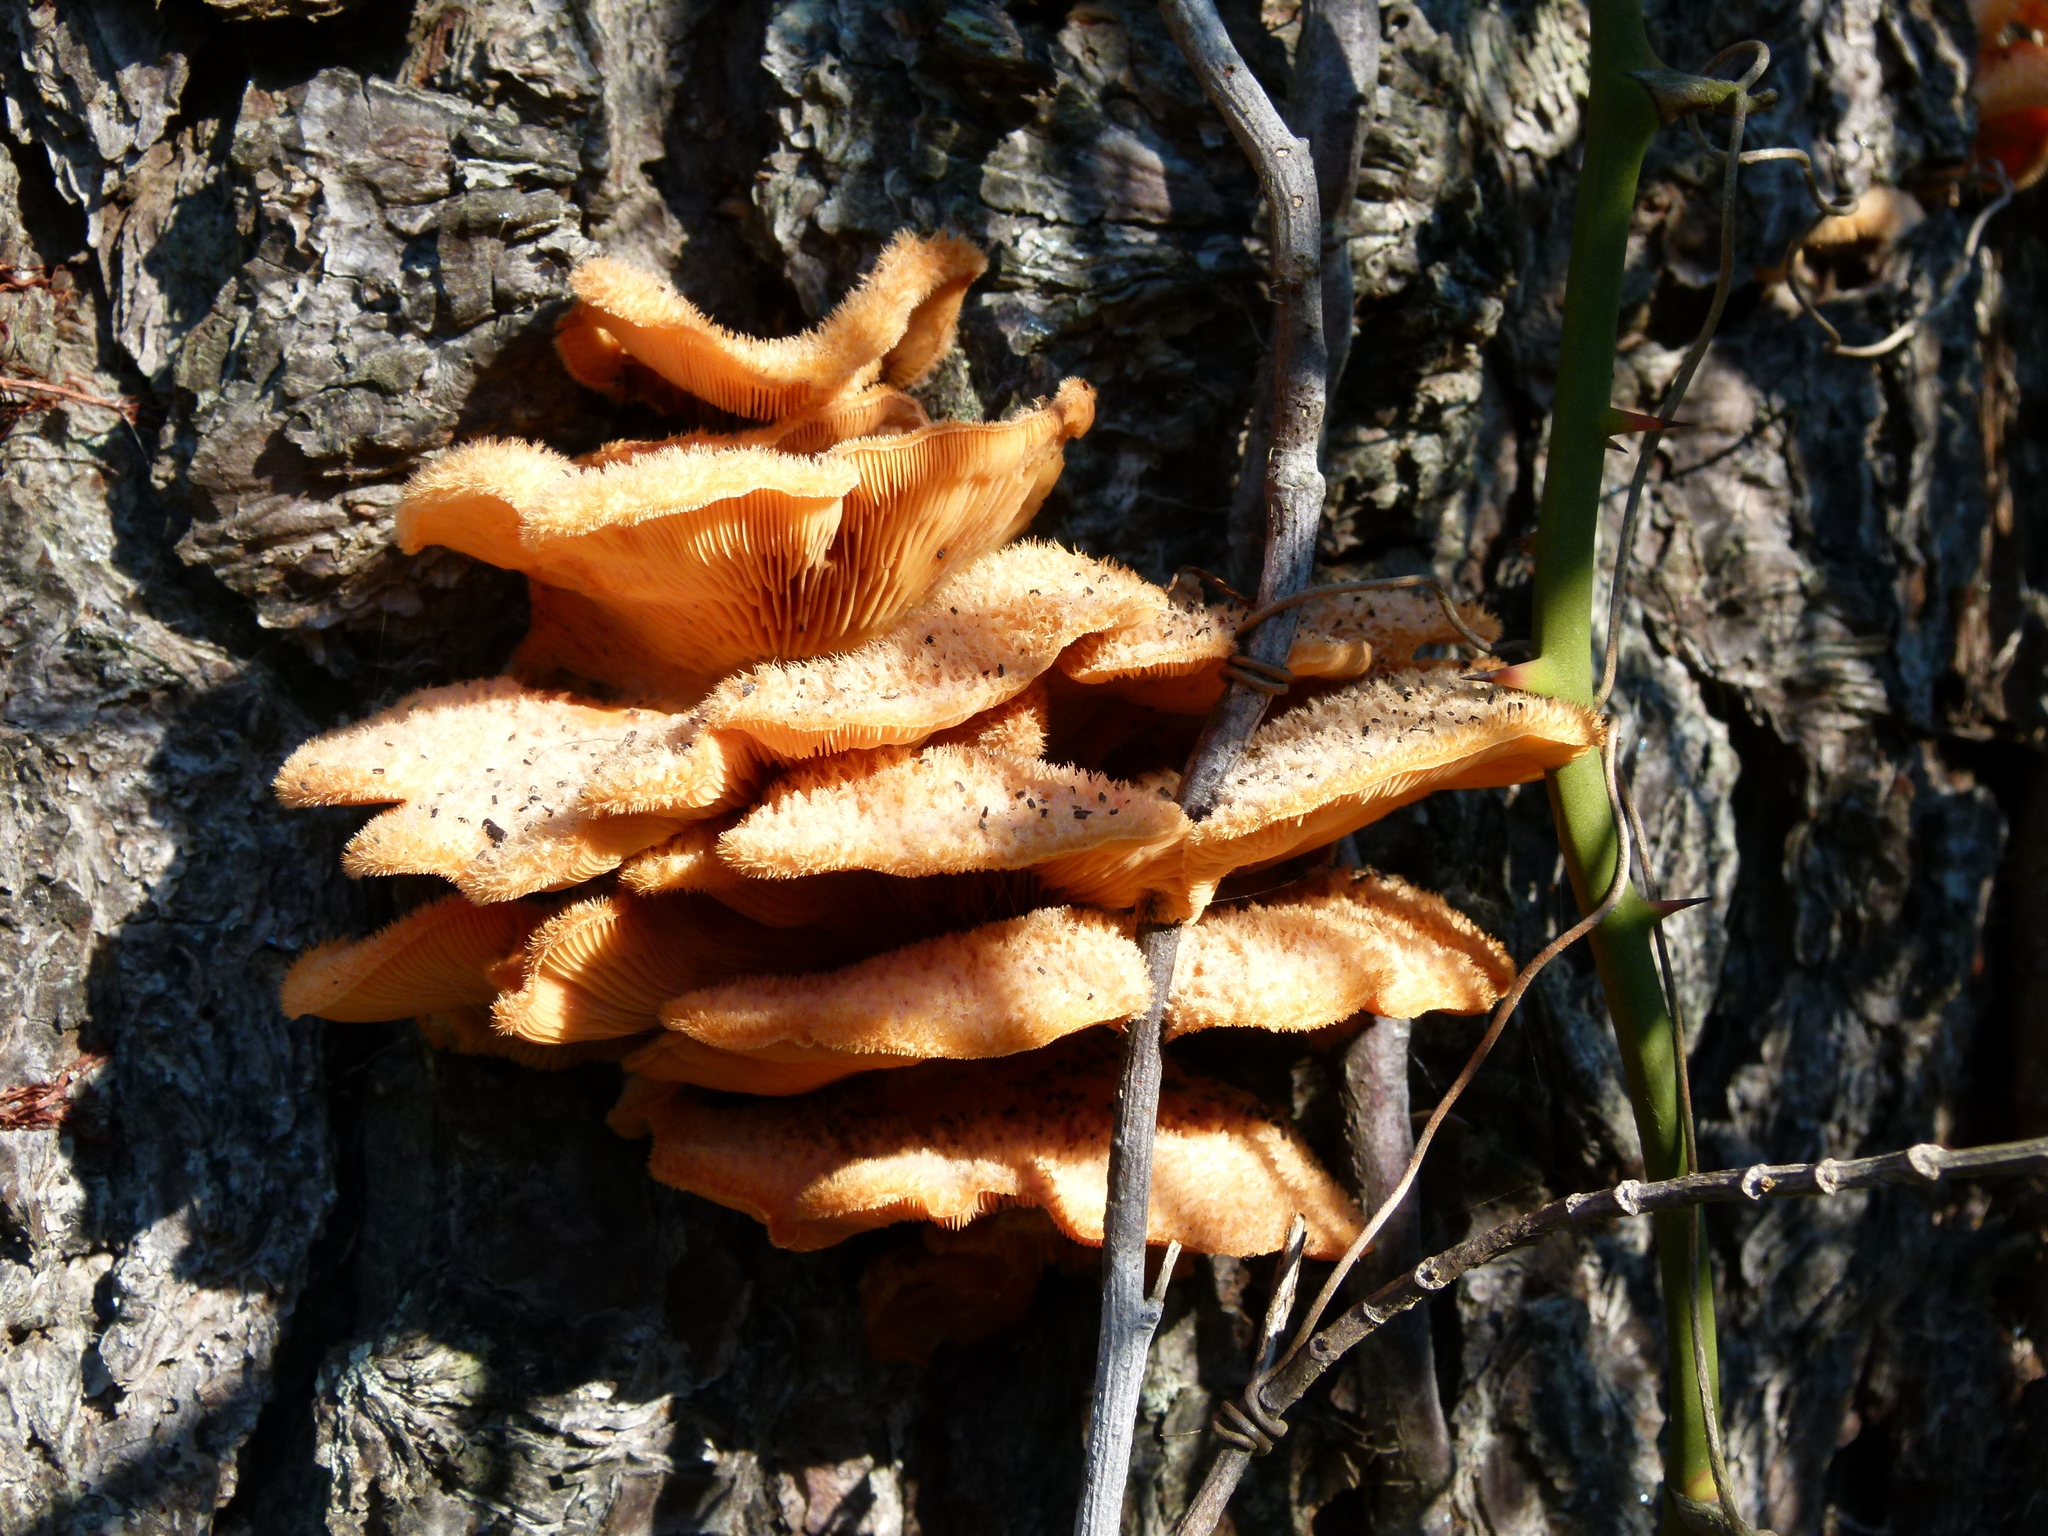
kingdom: Fungi
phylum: Basidiomycota
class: Agaricomycetes
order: Agaricales
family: Phyllotopsidaceae
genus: Phyllotopsis
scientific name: Phyllotopsis nidulans
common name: Orange mock oyster
